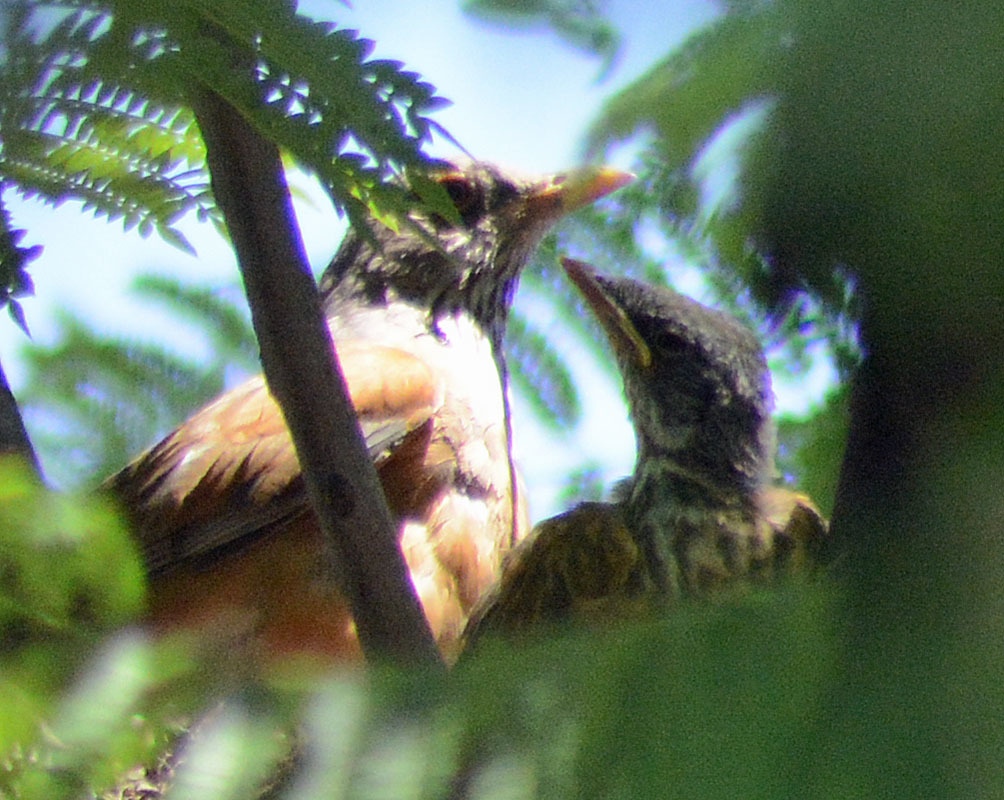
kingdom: Animalia
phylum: Chordata
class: Aves
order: Passeriformes
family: Turdidae
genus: Turdus
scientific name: Turdus rufopalliatus
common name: Rufous-backed robin
